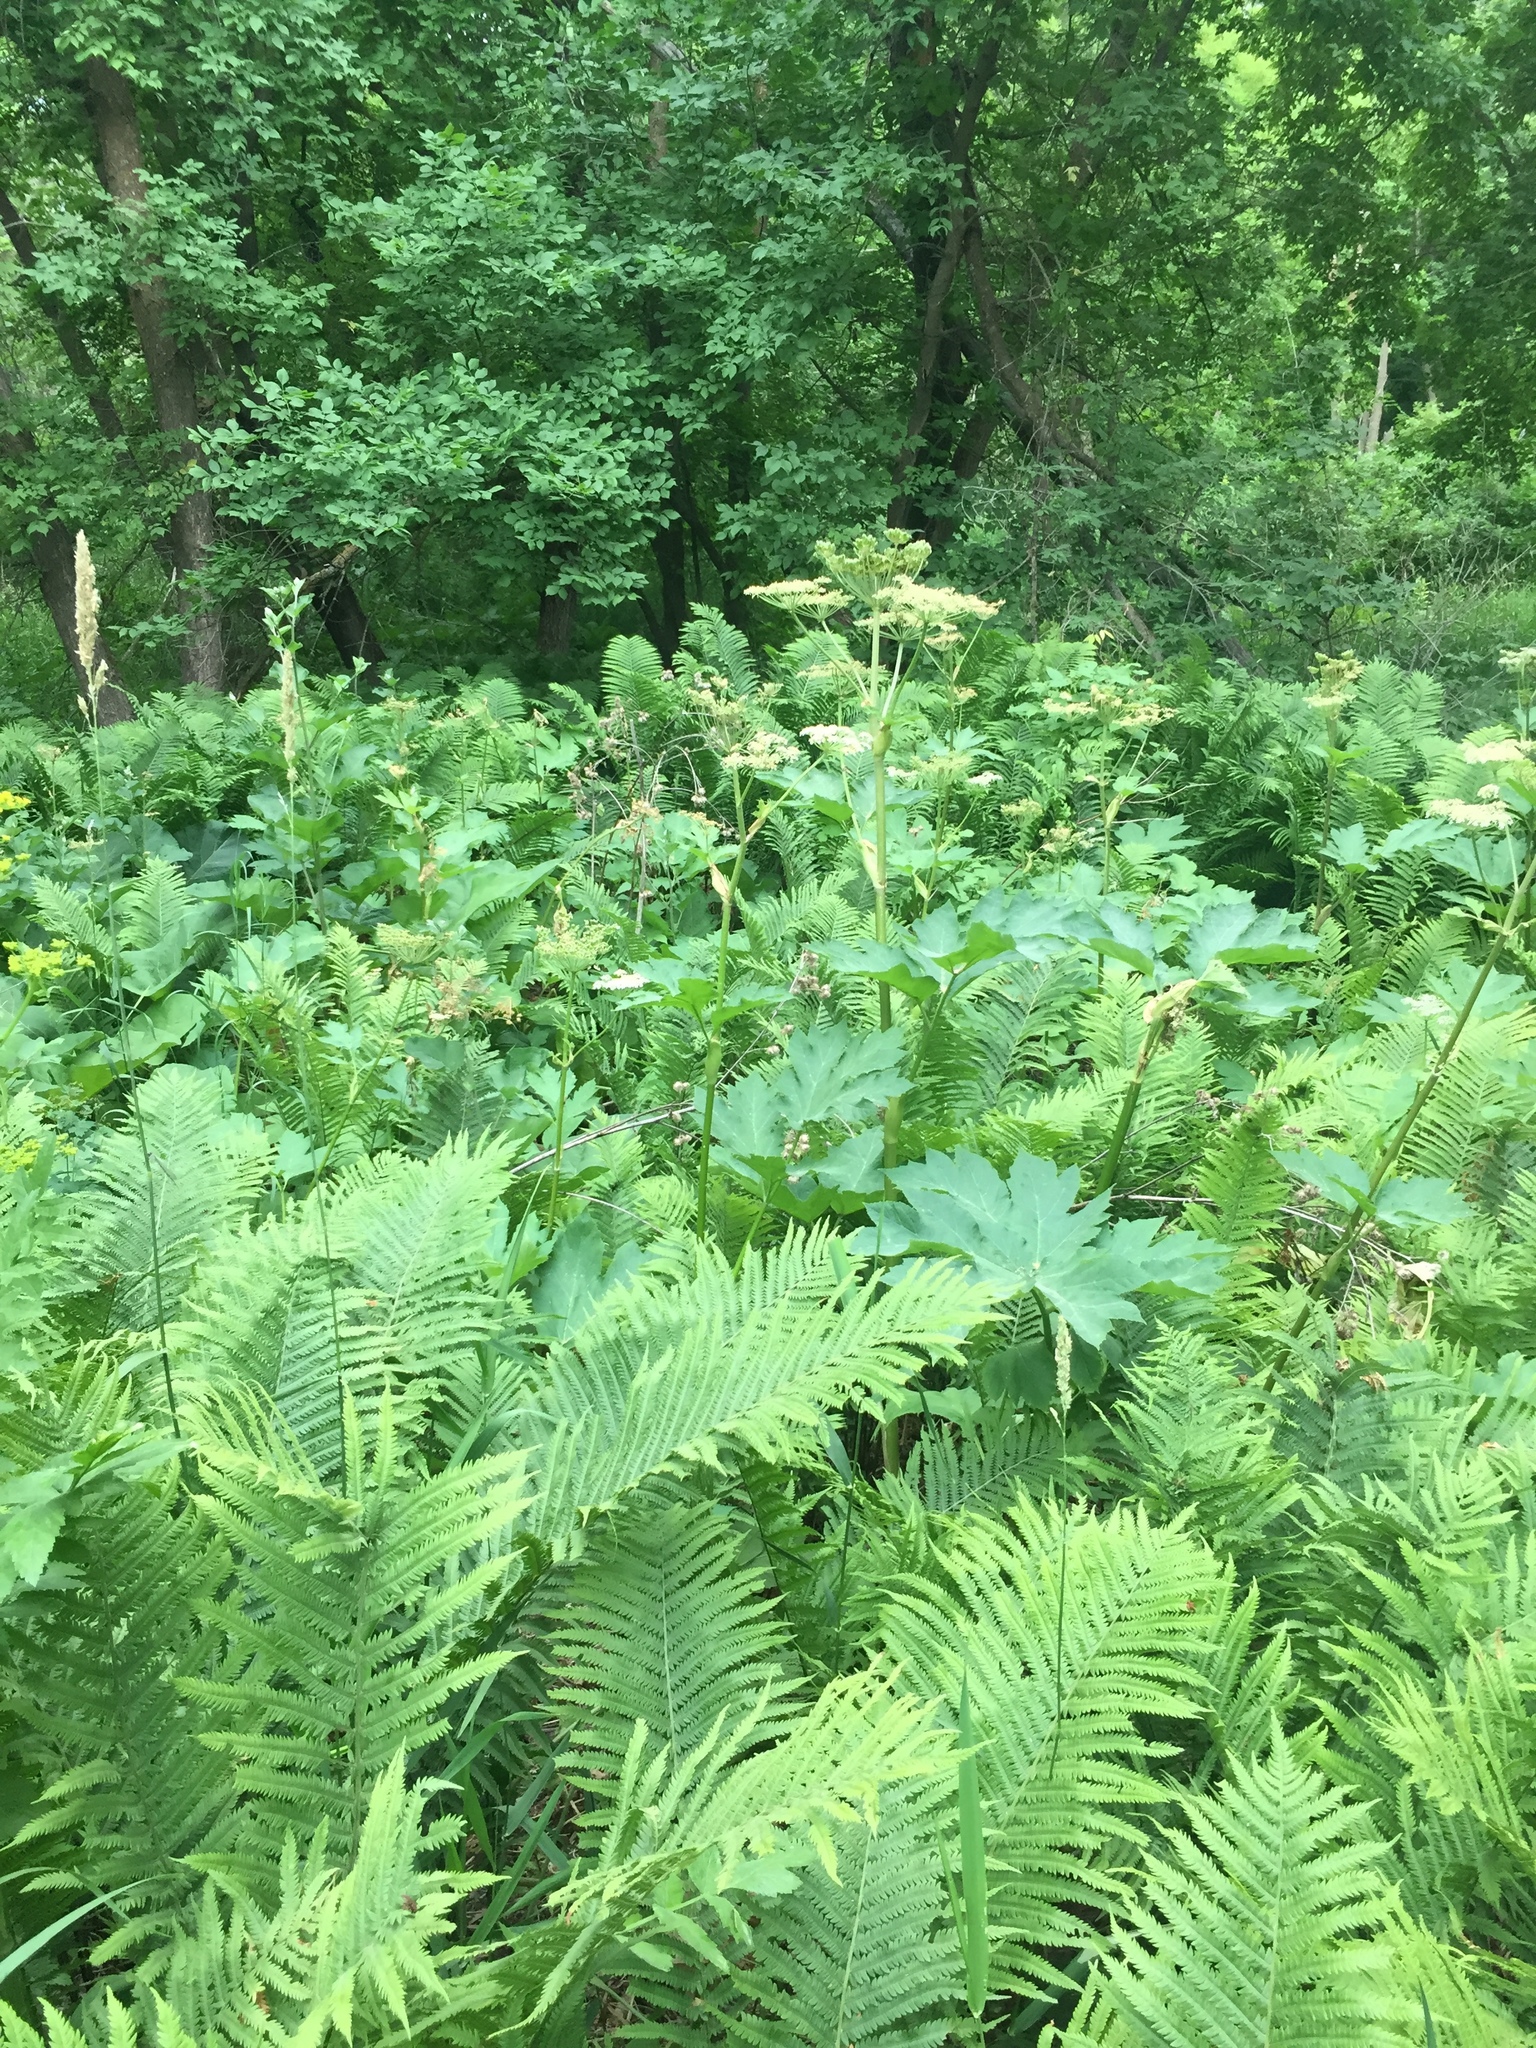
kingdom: Plantae
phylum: Tracheophyta
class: Magnoliopsida
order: Apiales
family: Apiaceae
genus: Heracleum
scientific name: Heracleum maximum
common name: American cow parsnip
